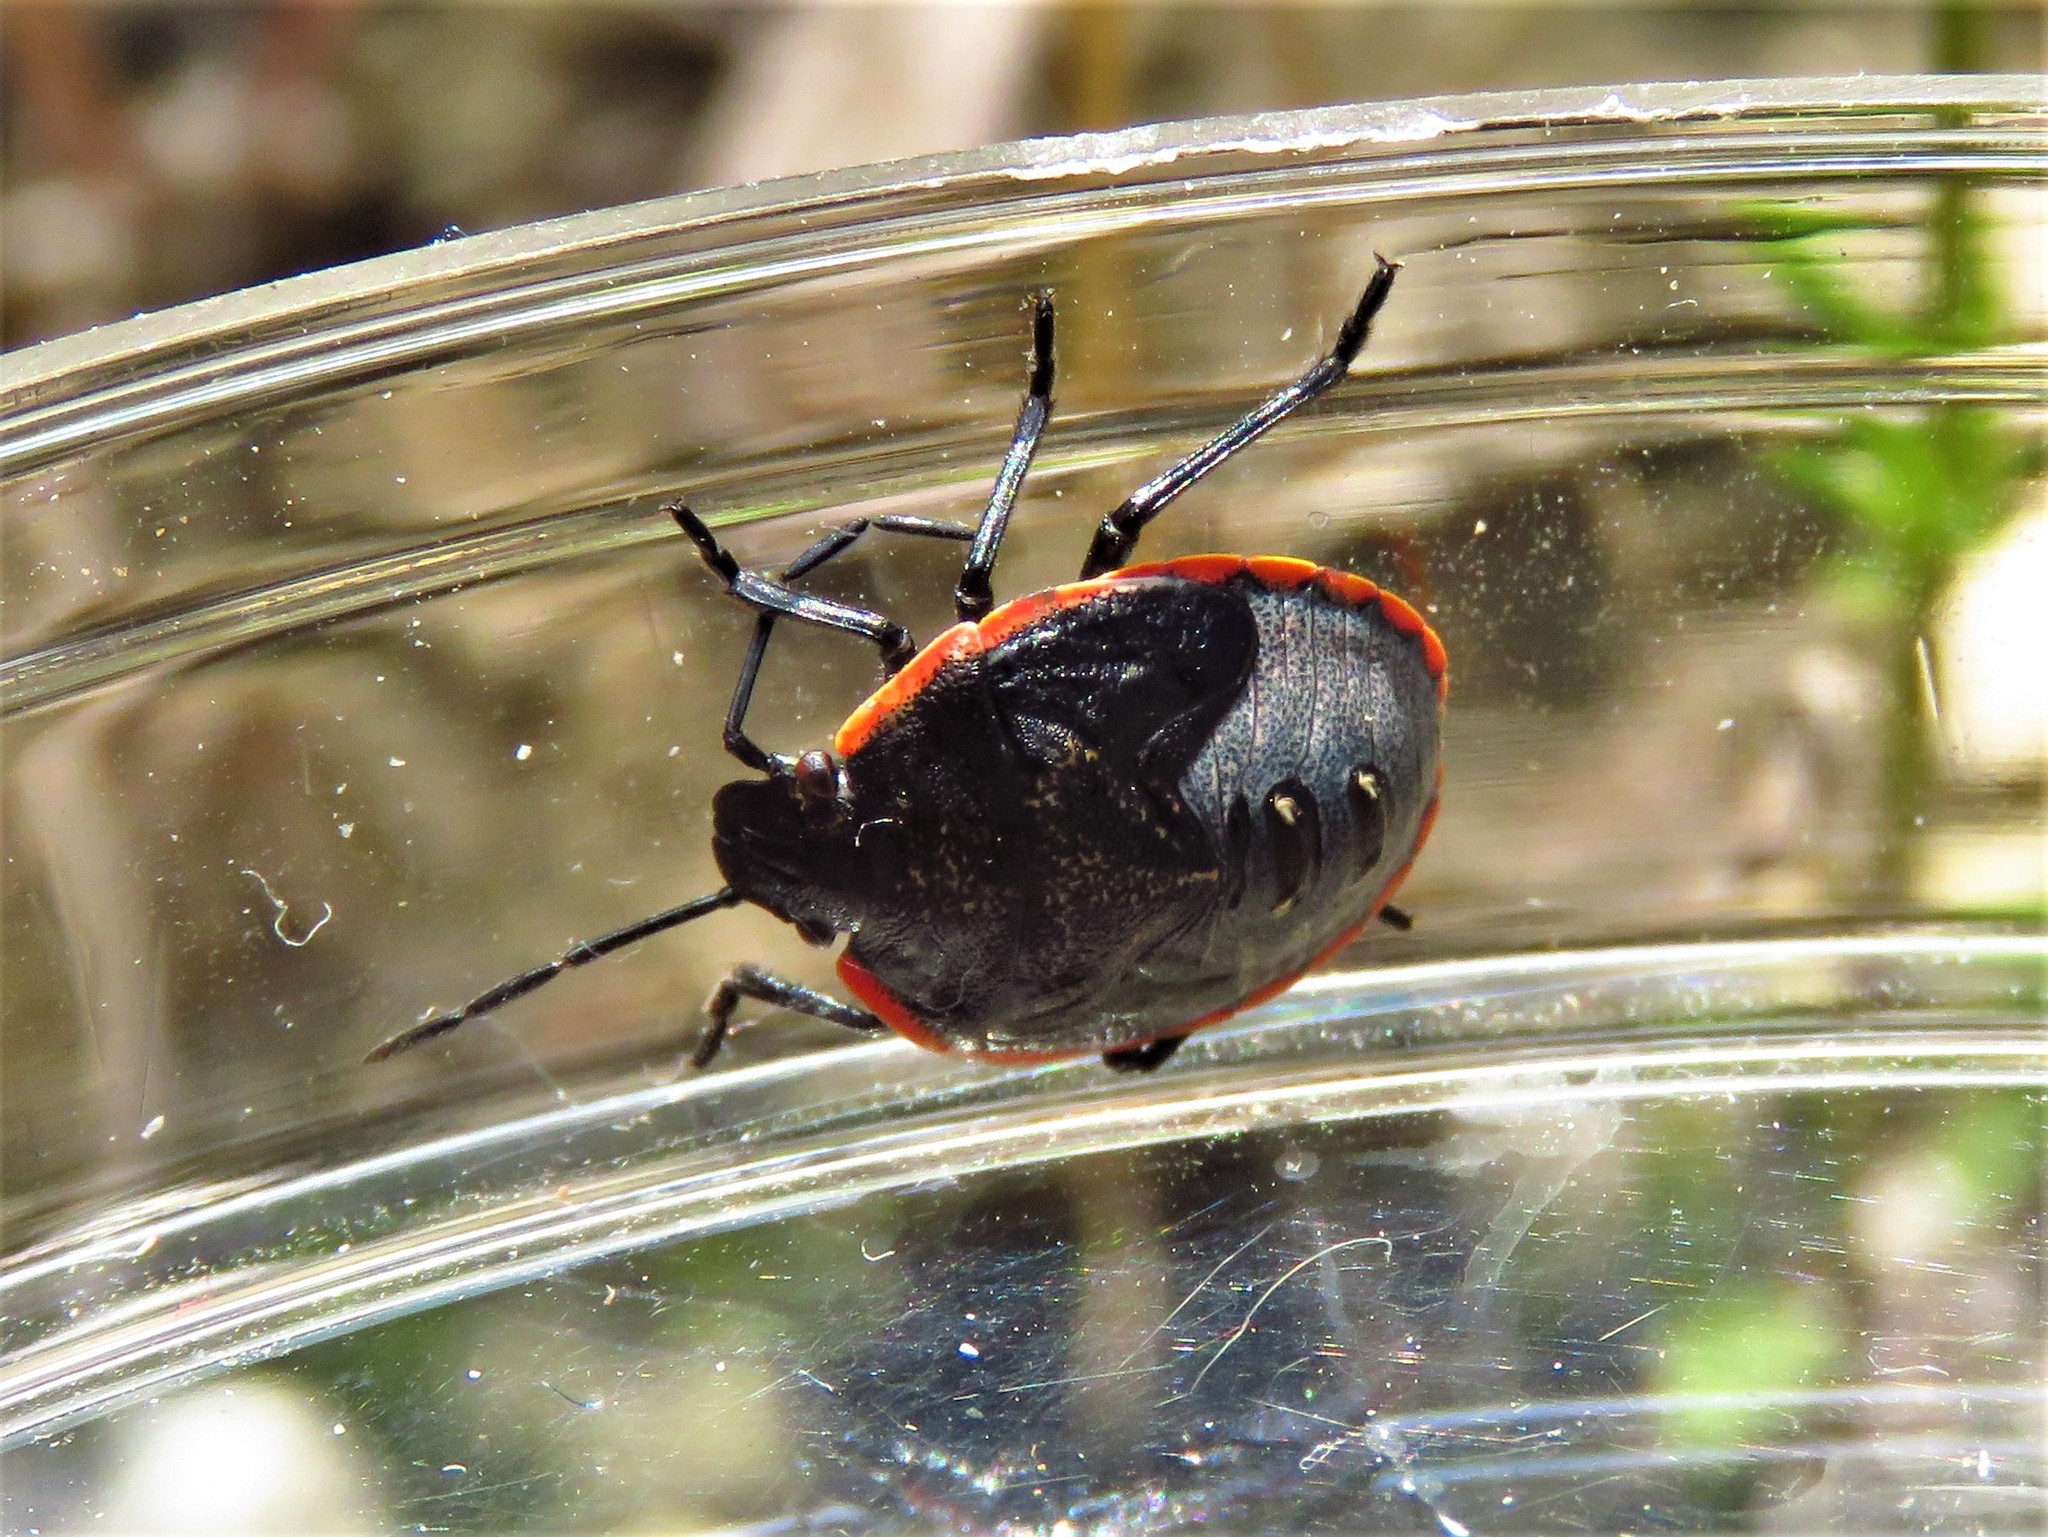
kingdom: Animalia
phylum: Arthropoda
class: Insecta
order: Hemiptera
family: Pentatomidae
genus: Chlorochroa
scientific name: Chlorochroa ligata
